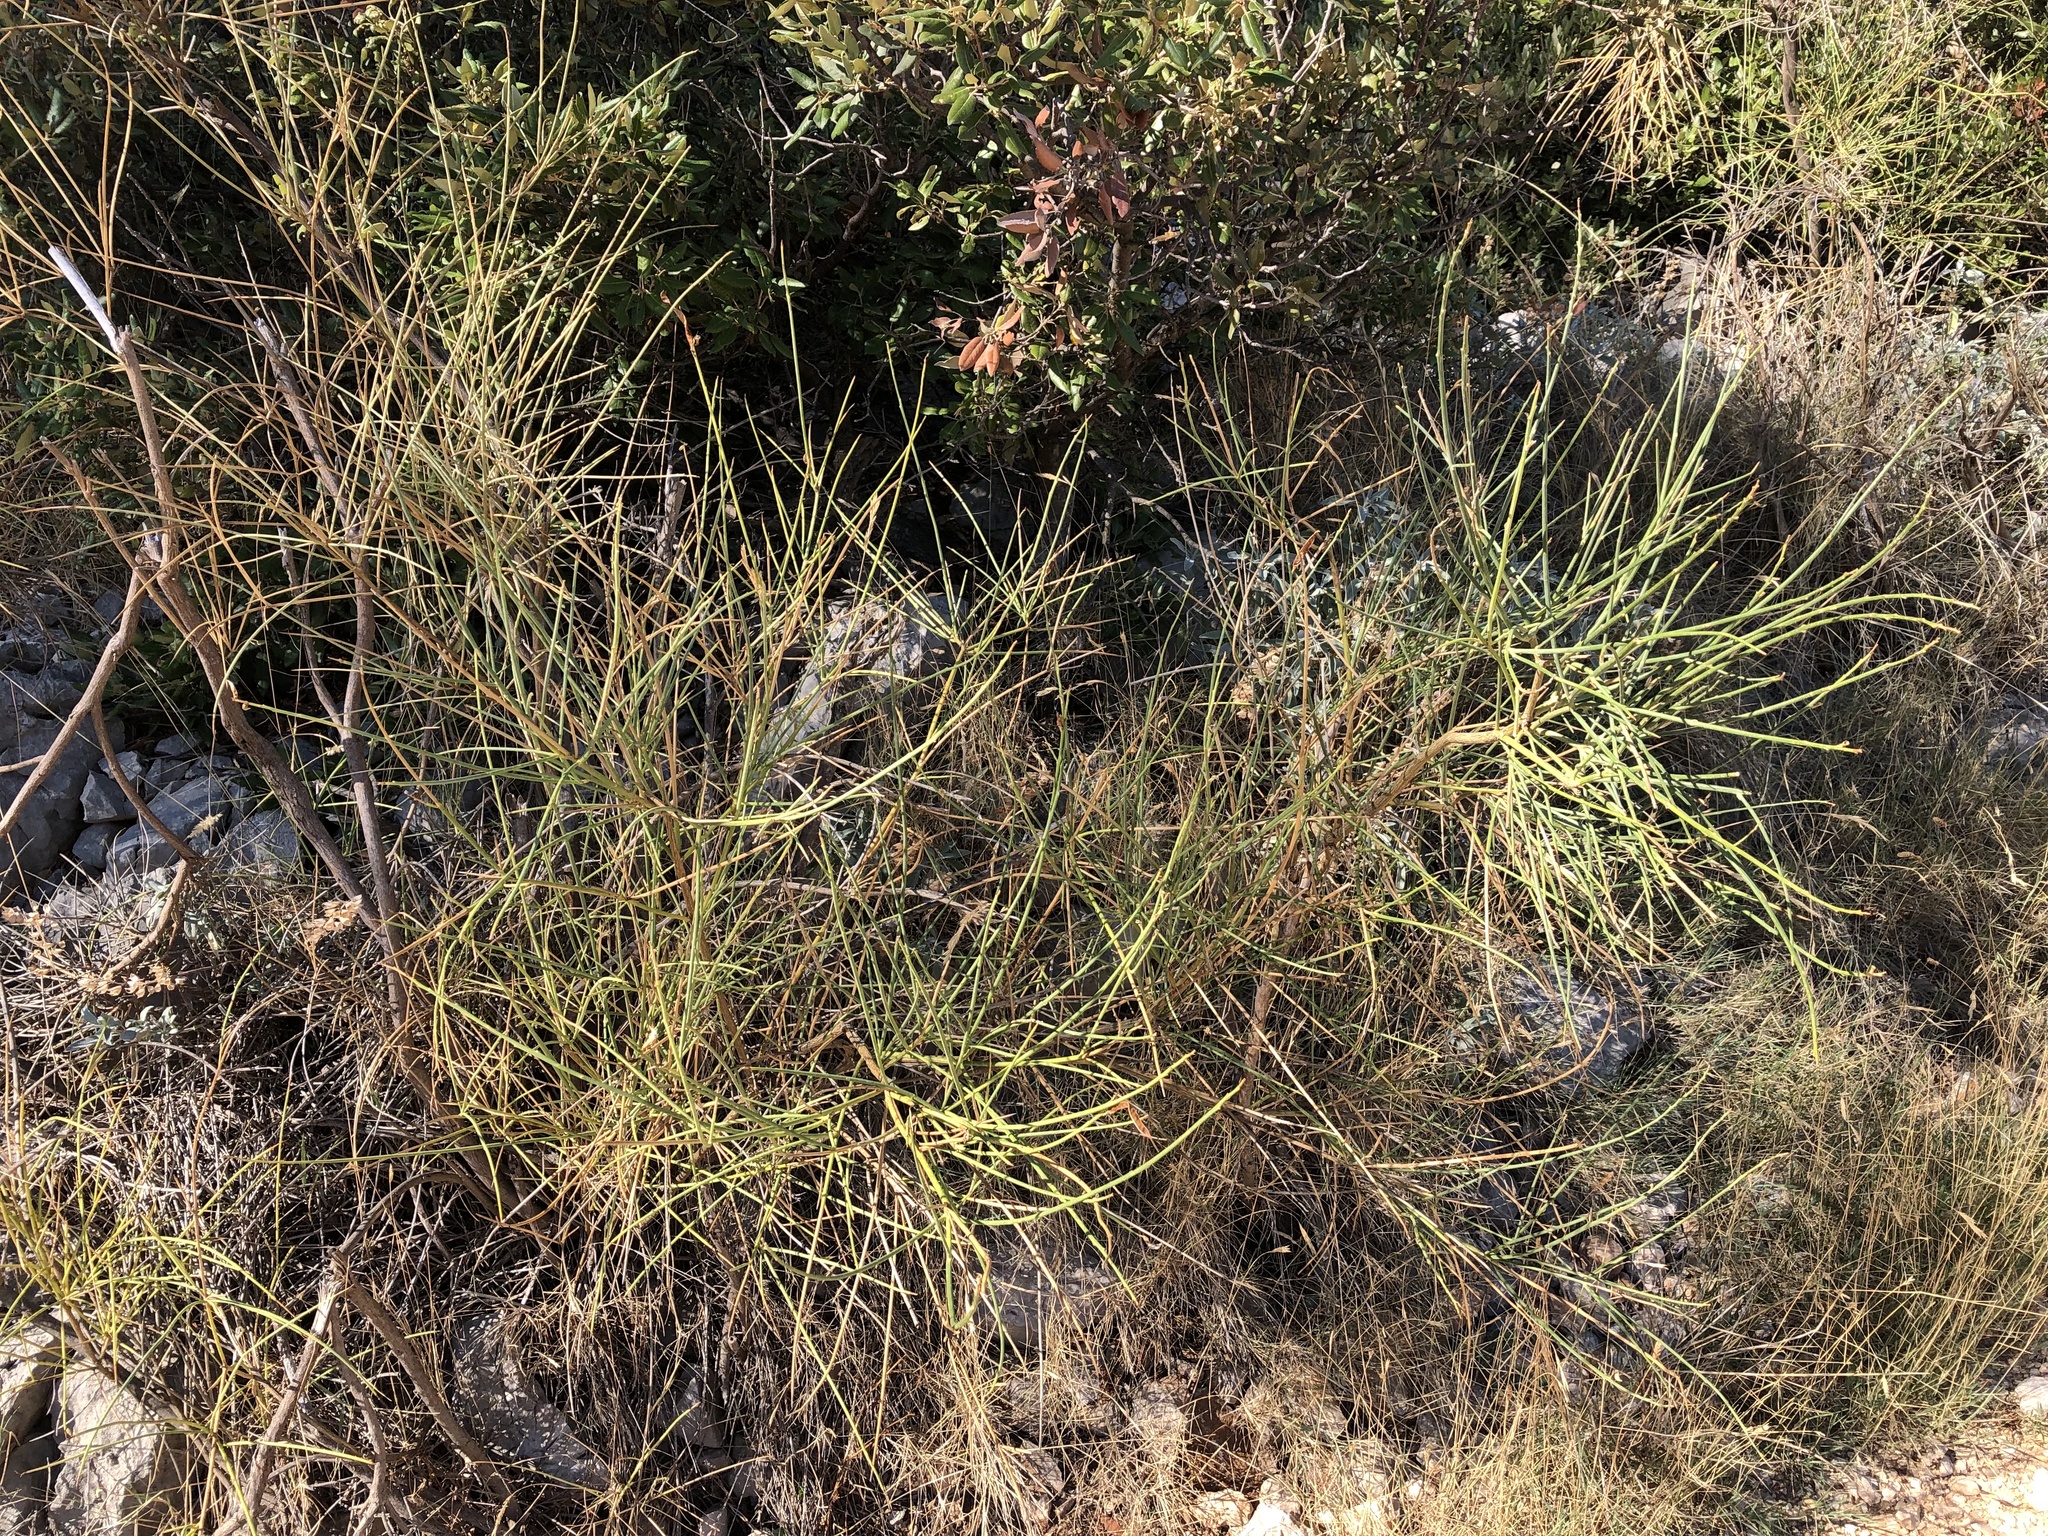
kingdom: Plantae
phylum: Tracheophyta
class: Magnoliopsida
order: Fabales
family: Fabaceae
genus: Spartium
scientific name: Spartium junceum
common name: Spanish broom
